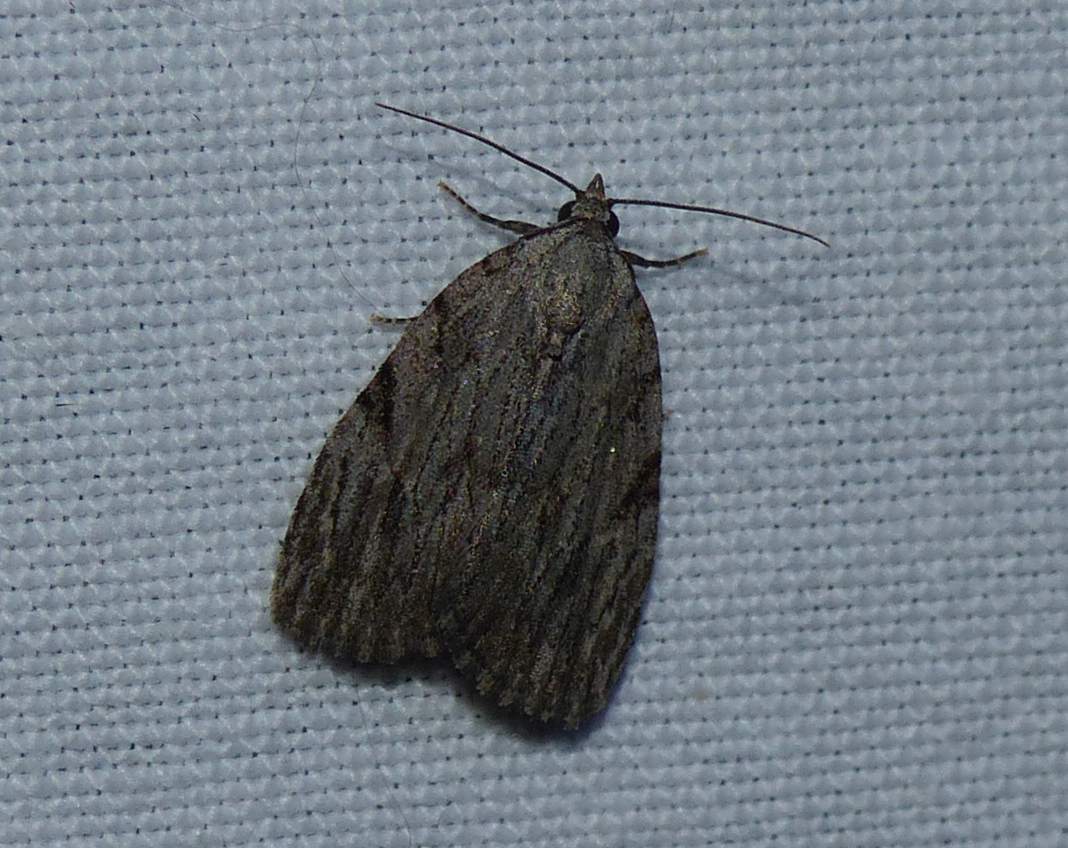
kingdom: Animalia
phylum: Arthropoda
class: Insecta
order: Lepidoptera
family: Noctuidae
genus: Balsa
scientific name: Balsa tristrigella
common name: Three-lined balsa moth
